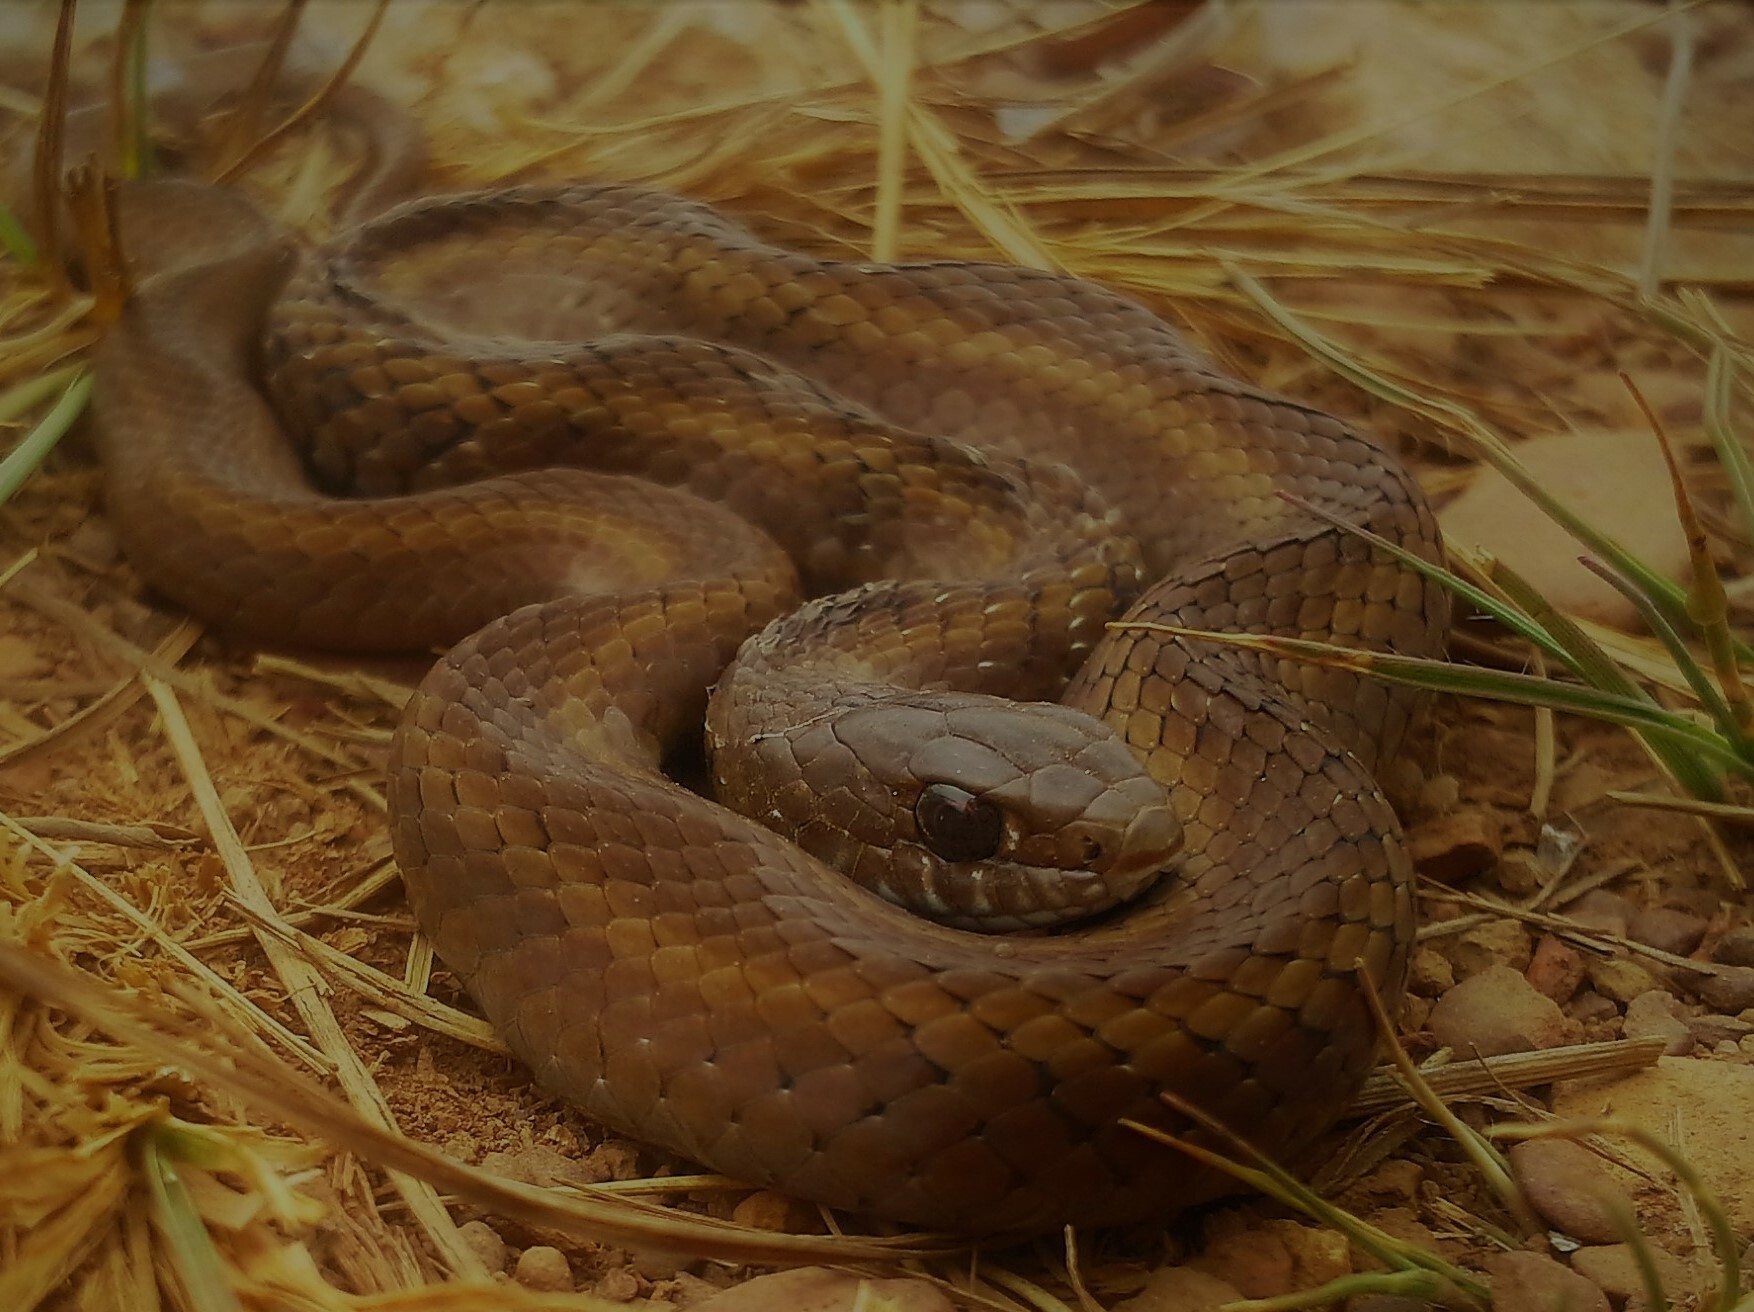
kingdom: Animalia
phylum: Chordata
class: Squamata
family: Pseudoxyrhophiidae
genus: Amplorhinus
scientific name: Amplorhinus multimaculatus
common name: Many-spotted snake
